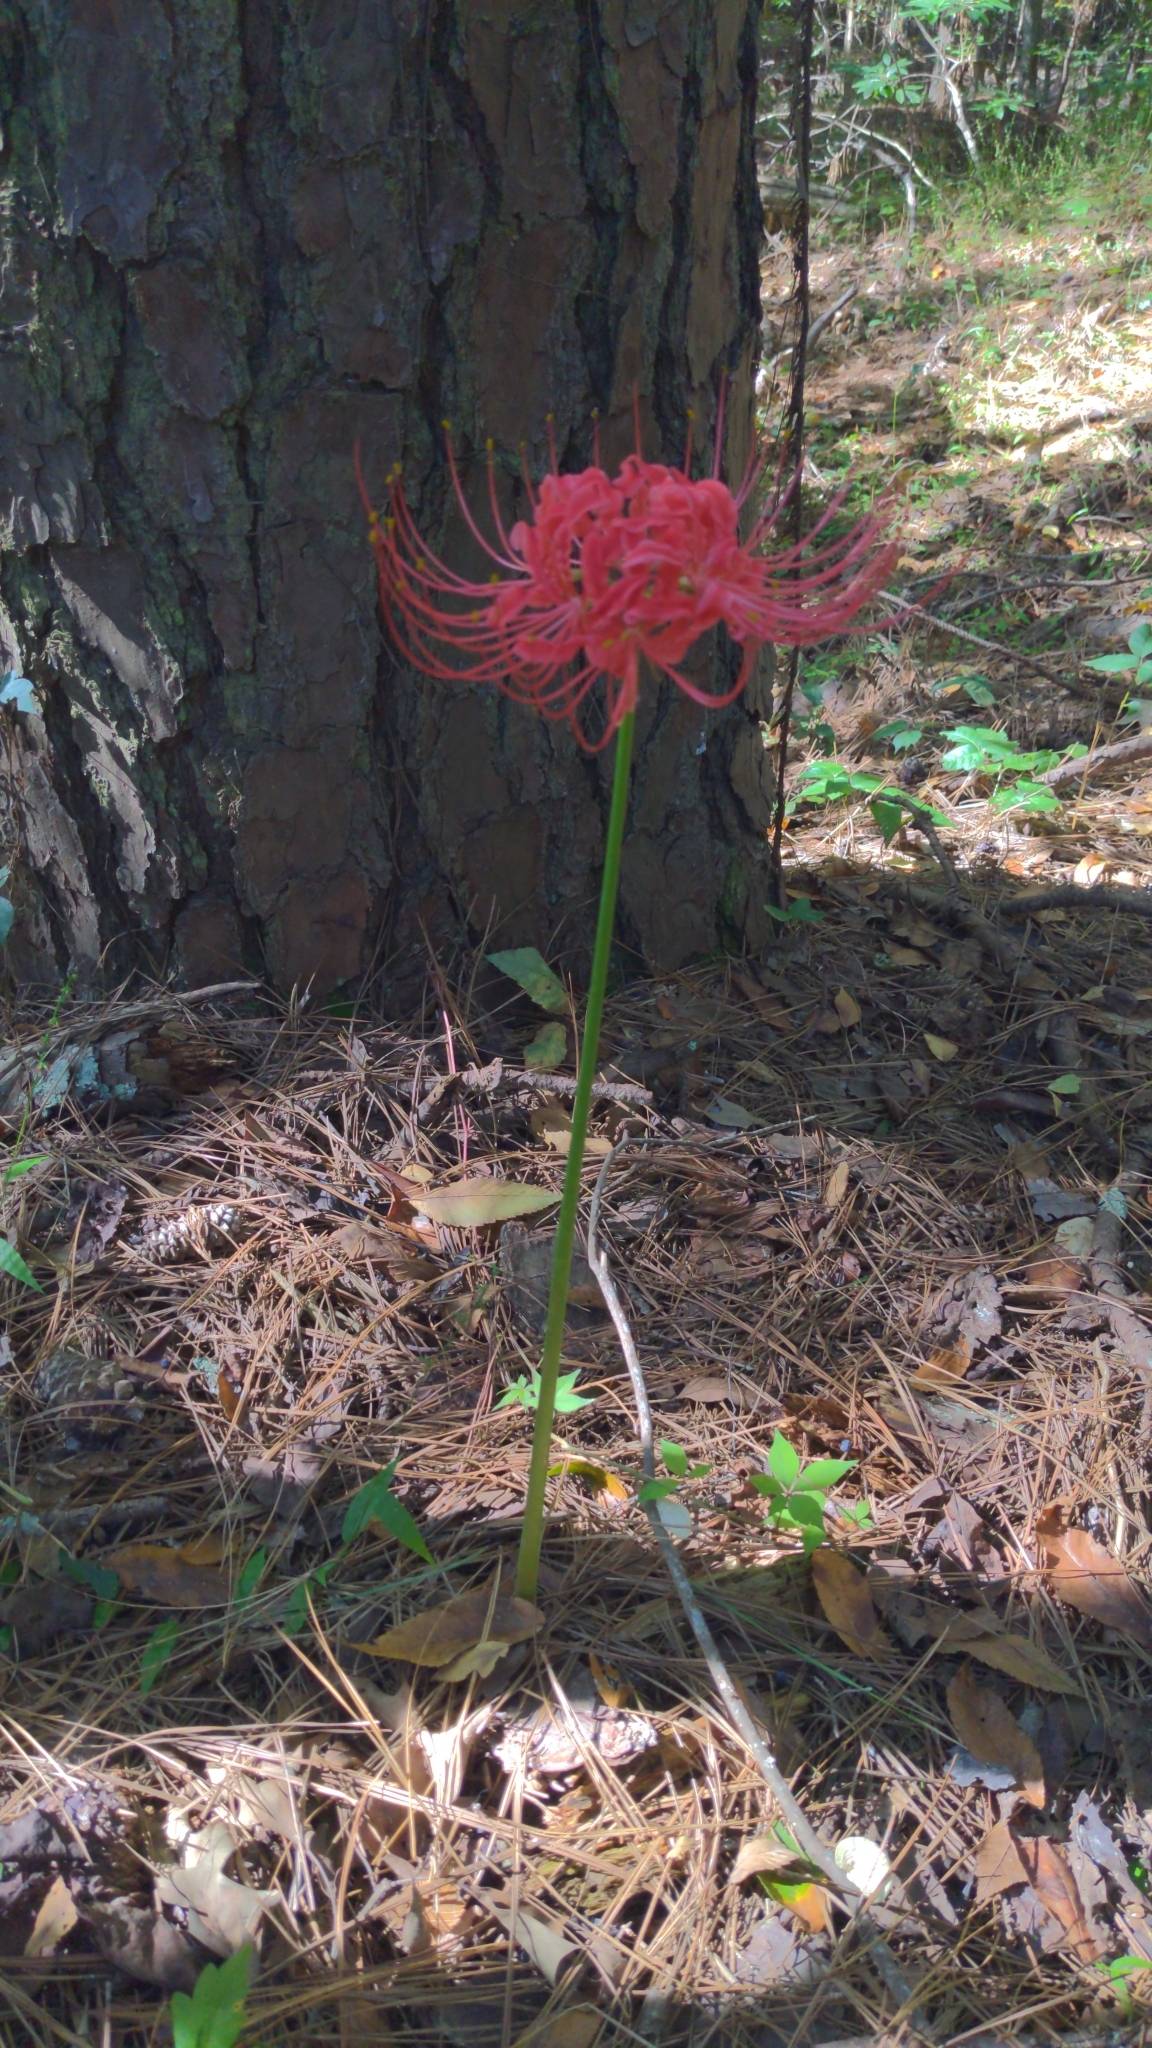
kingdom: Plantae
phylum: Tracheophyta
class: Liliopsida
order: Asparagales
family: Amaryllidaceae
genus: Lycoris
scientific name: Lycoris radiata
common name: Red spider lily
